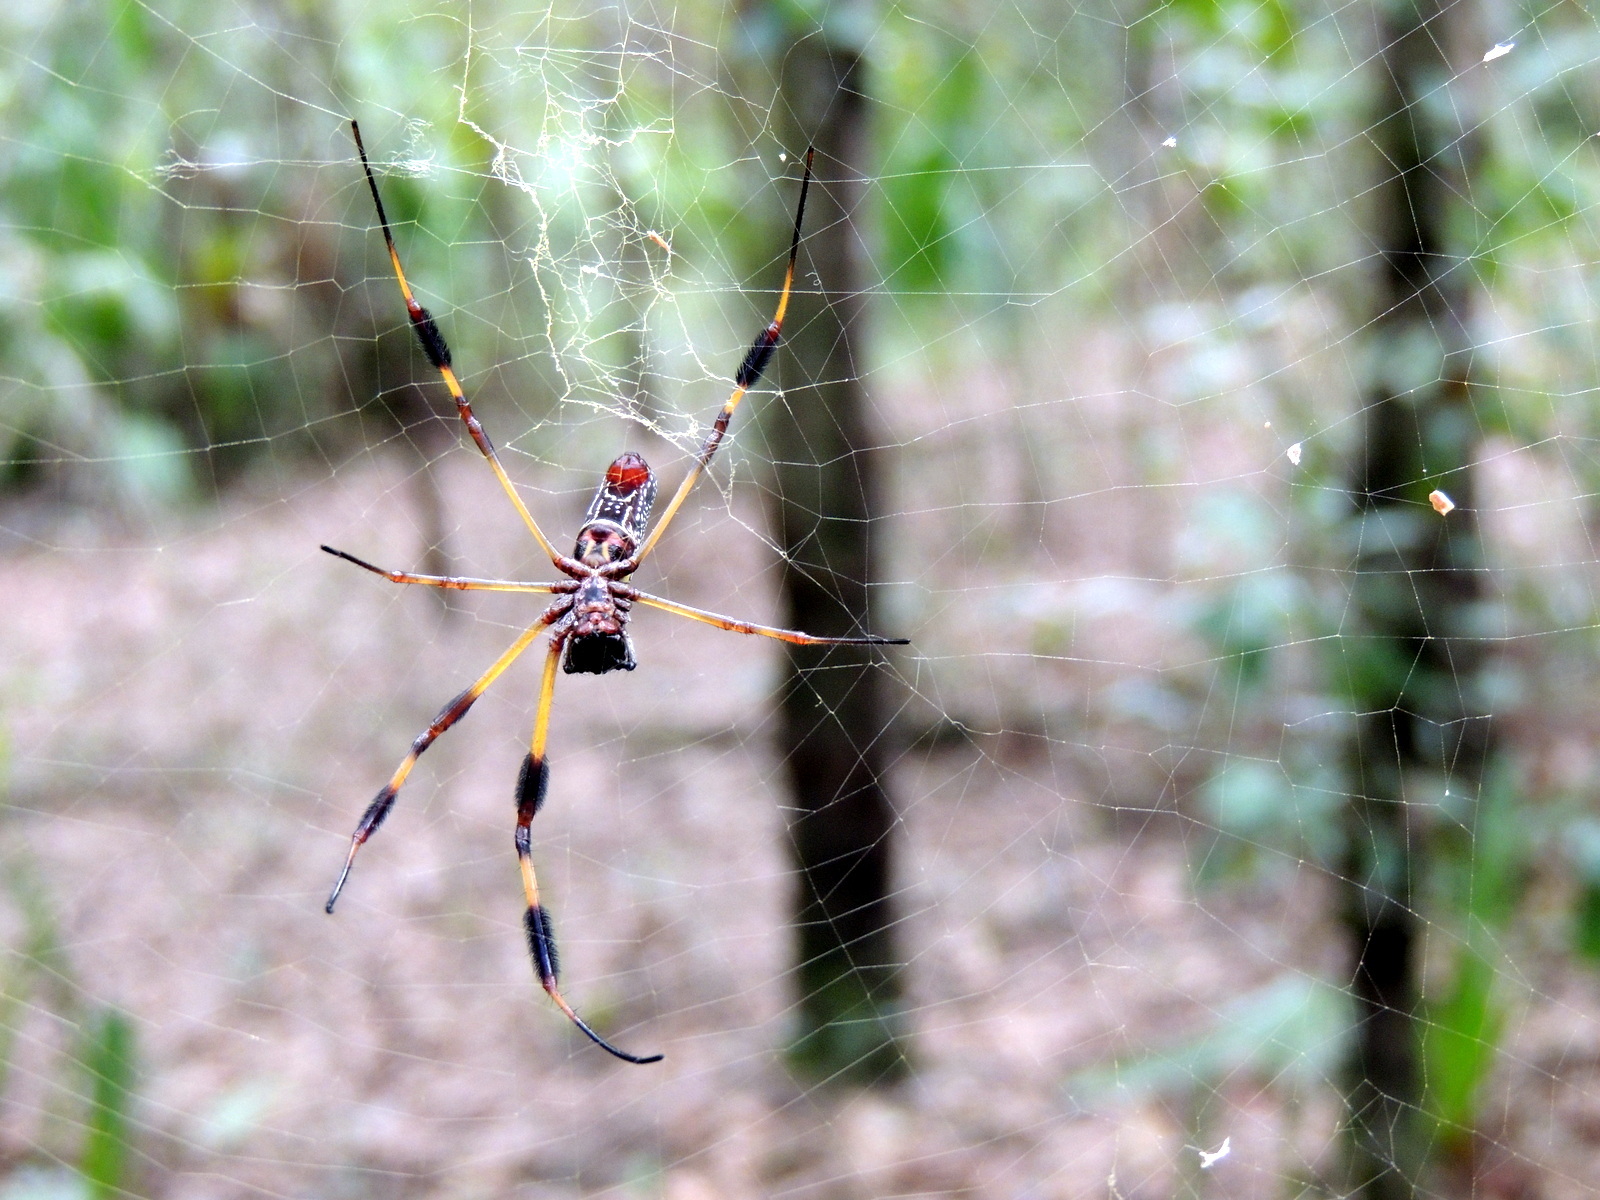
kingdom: Animalia
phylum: Arthropoda
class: Arachnida
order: Araneae
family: Araneidae
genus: Trichonephila
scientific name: Trichonephila clavipes
